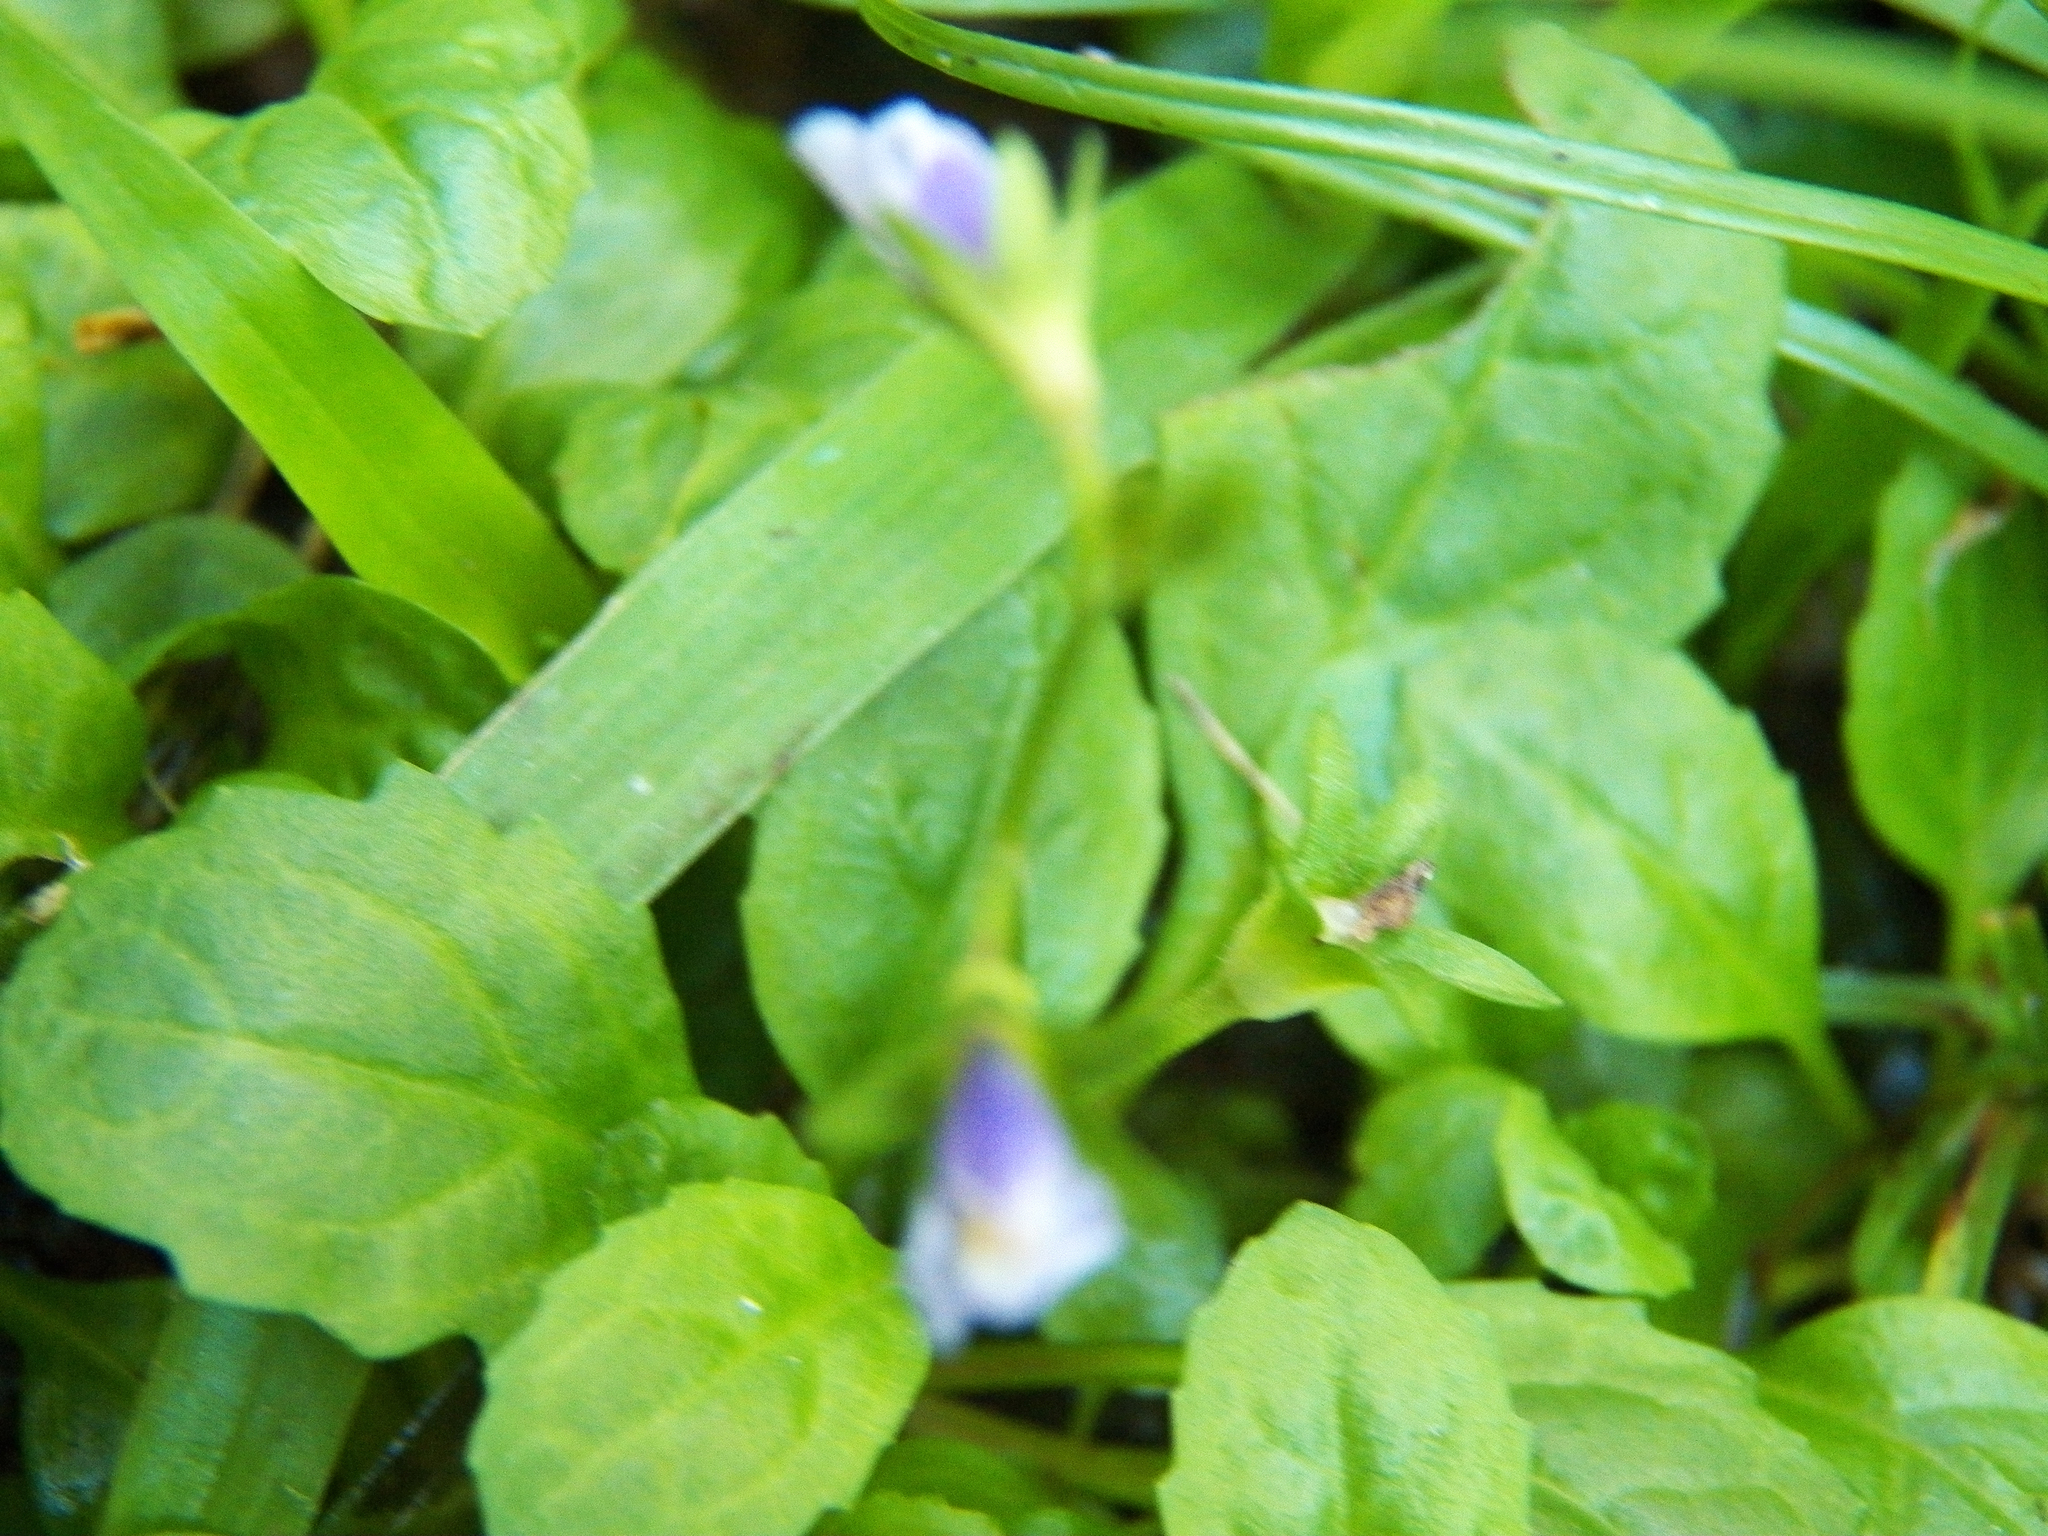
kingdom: Plantae
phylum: Tracheophyta
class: Magnoliopsida
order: Lamiales
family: Mazaceae
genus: Mazus
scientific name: Mazus pumilus
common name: Japanese mazus
